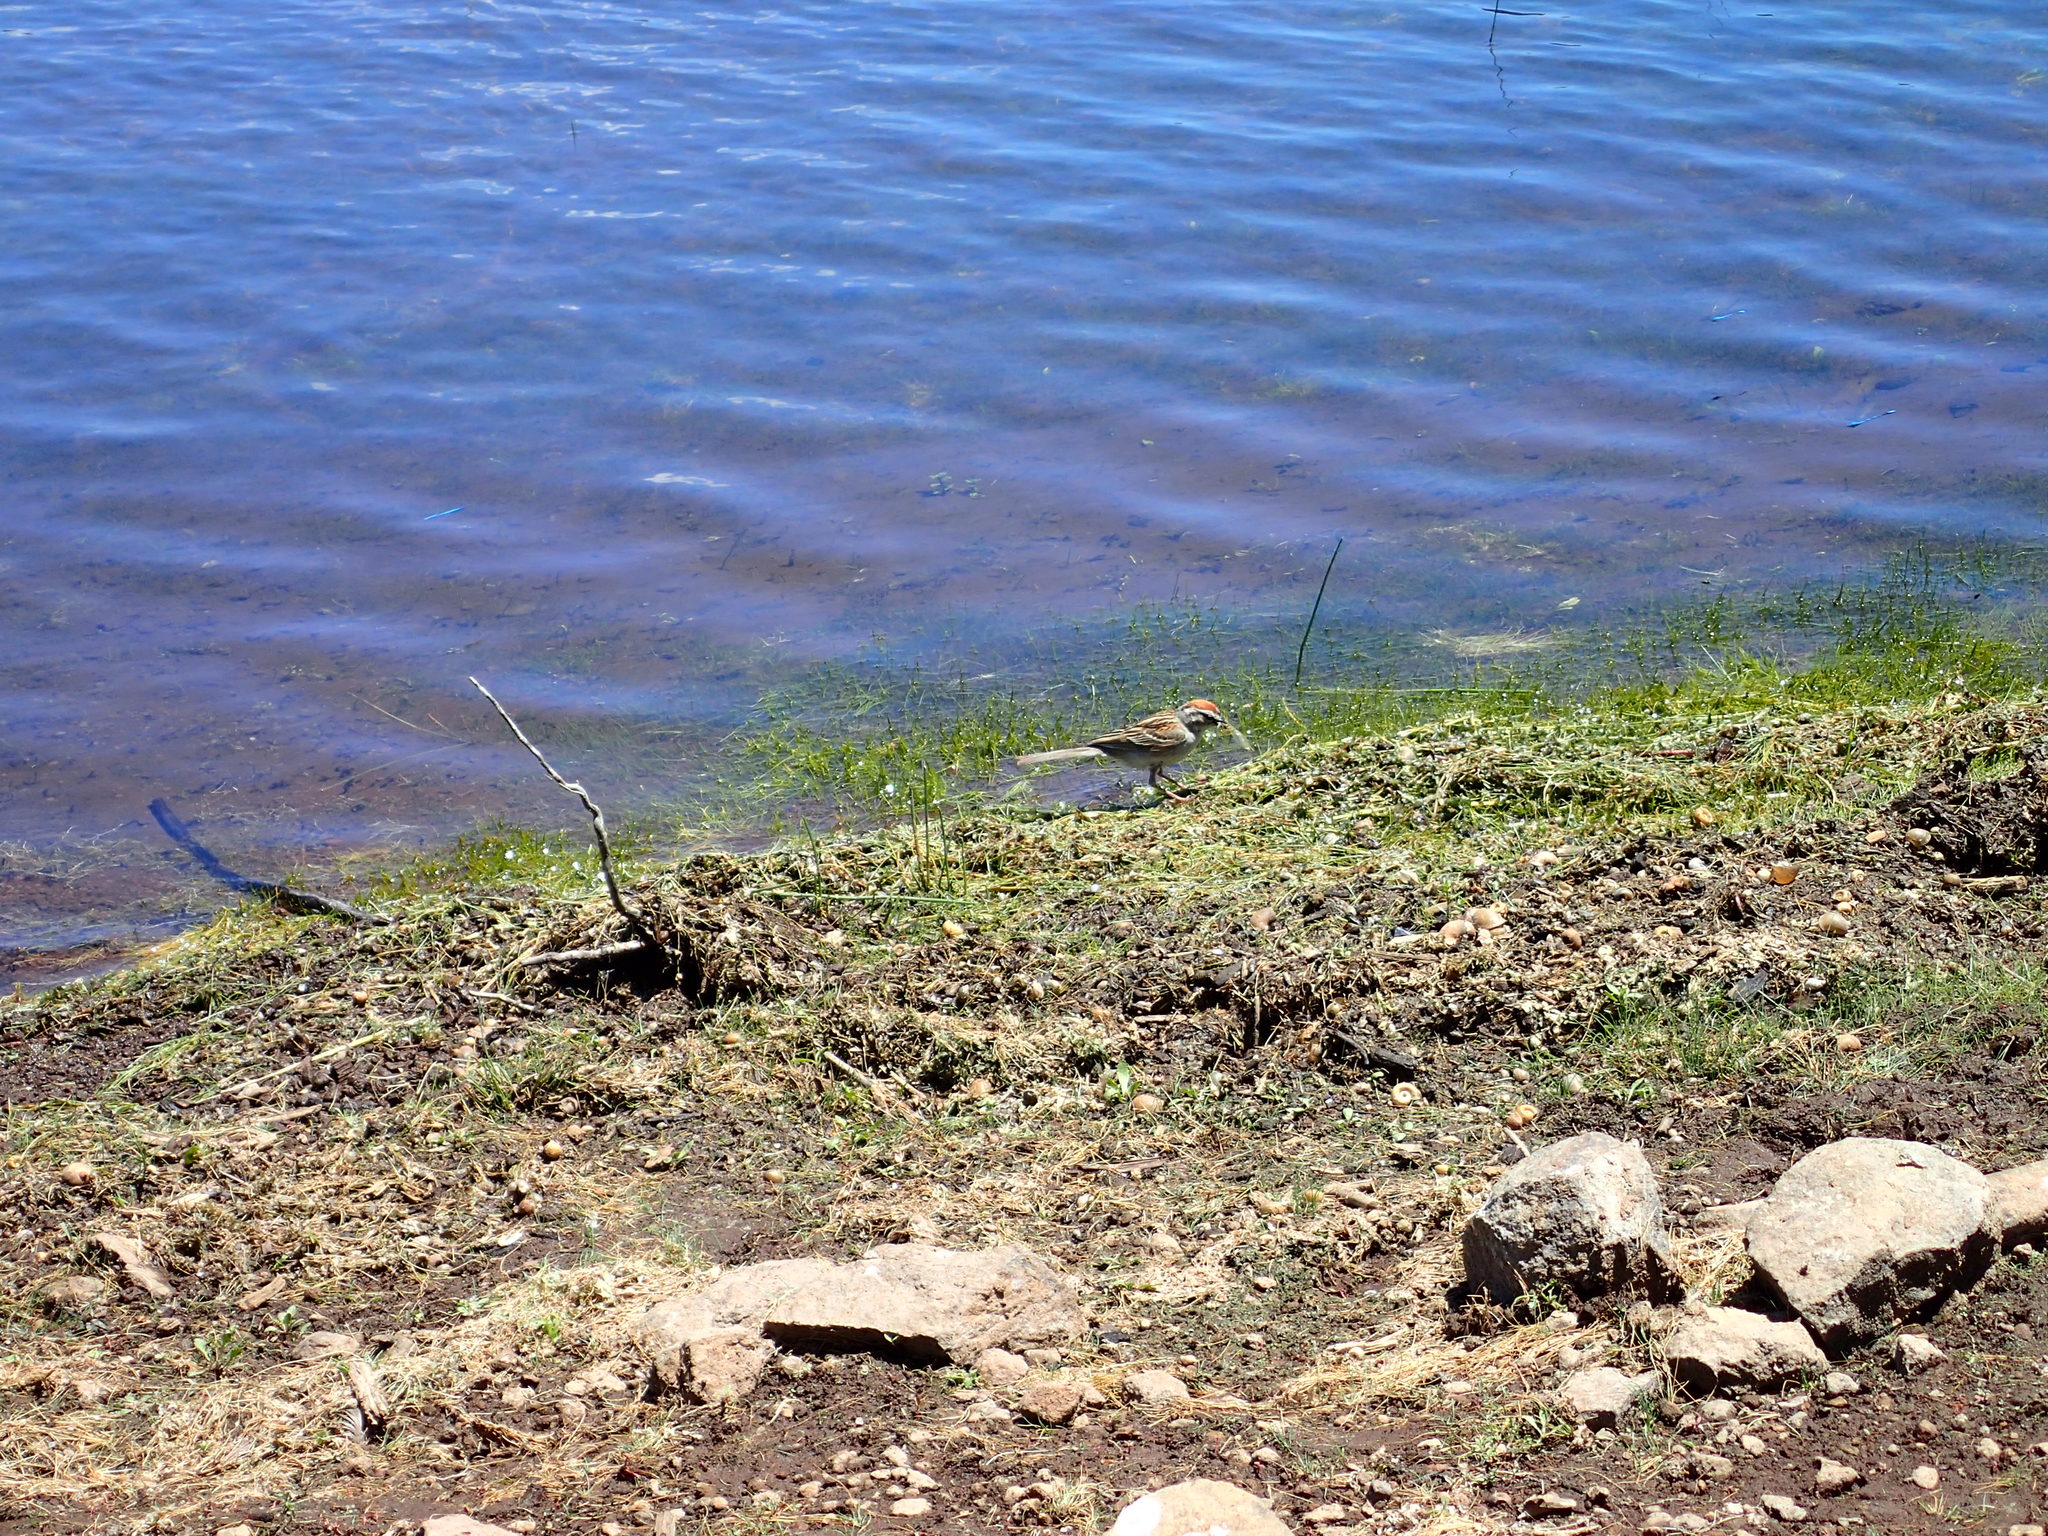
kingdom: Animalia
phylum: Chordata
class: Aves
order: Passeriformes
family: Passerellidae
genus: Spizella
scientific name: Spizella passerina
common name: Chipping sparrow
